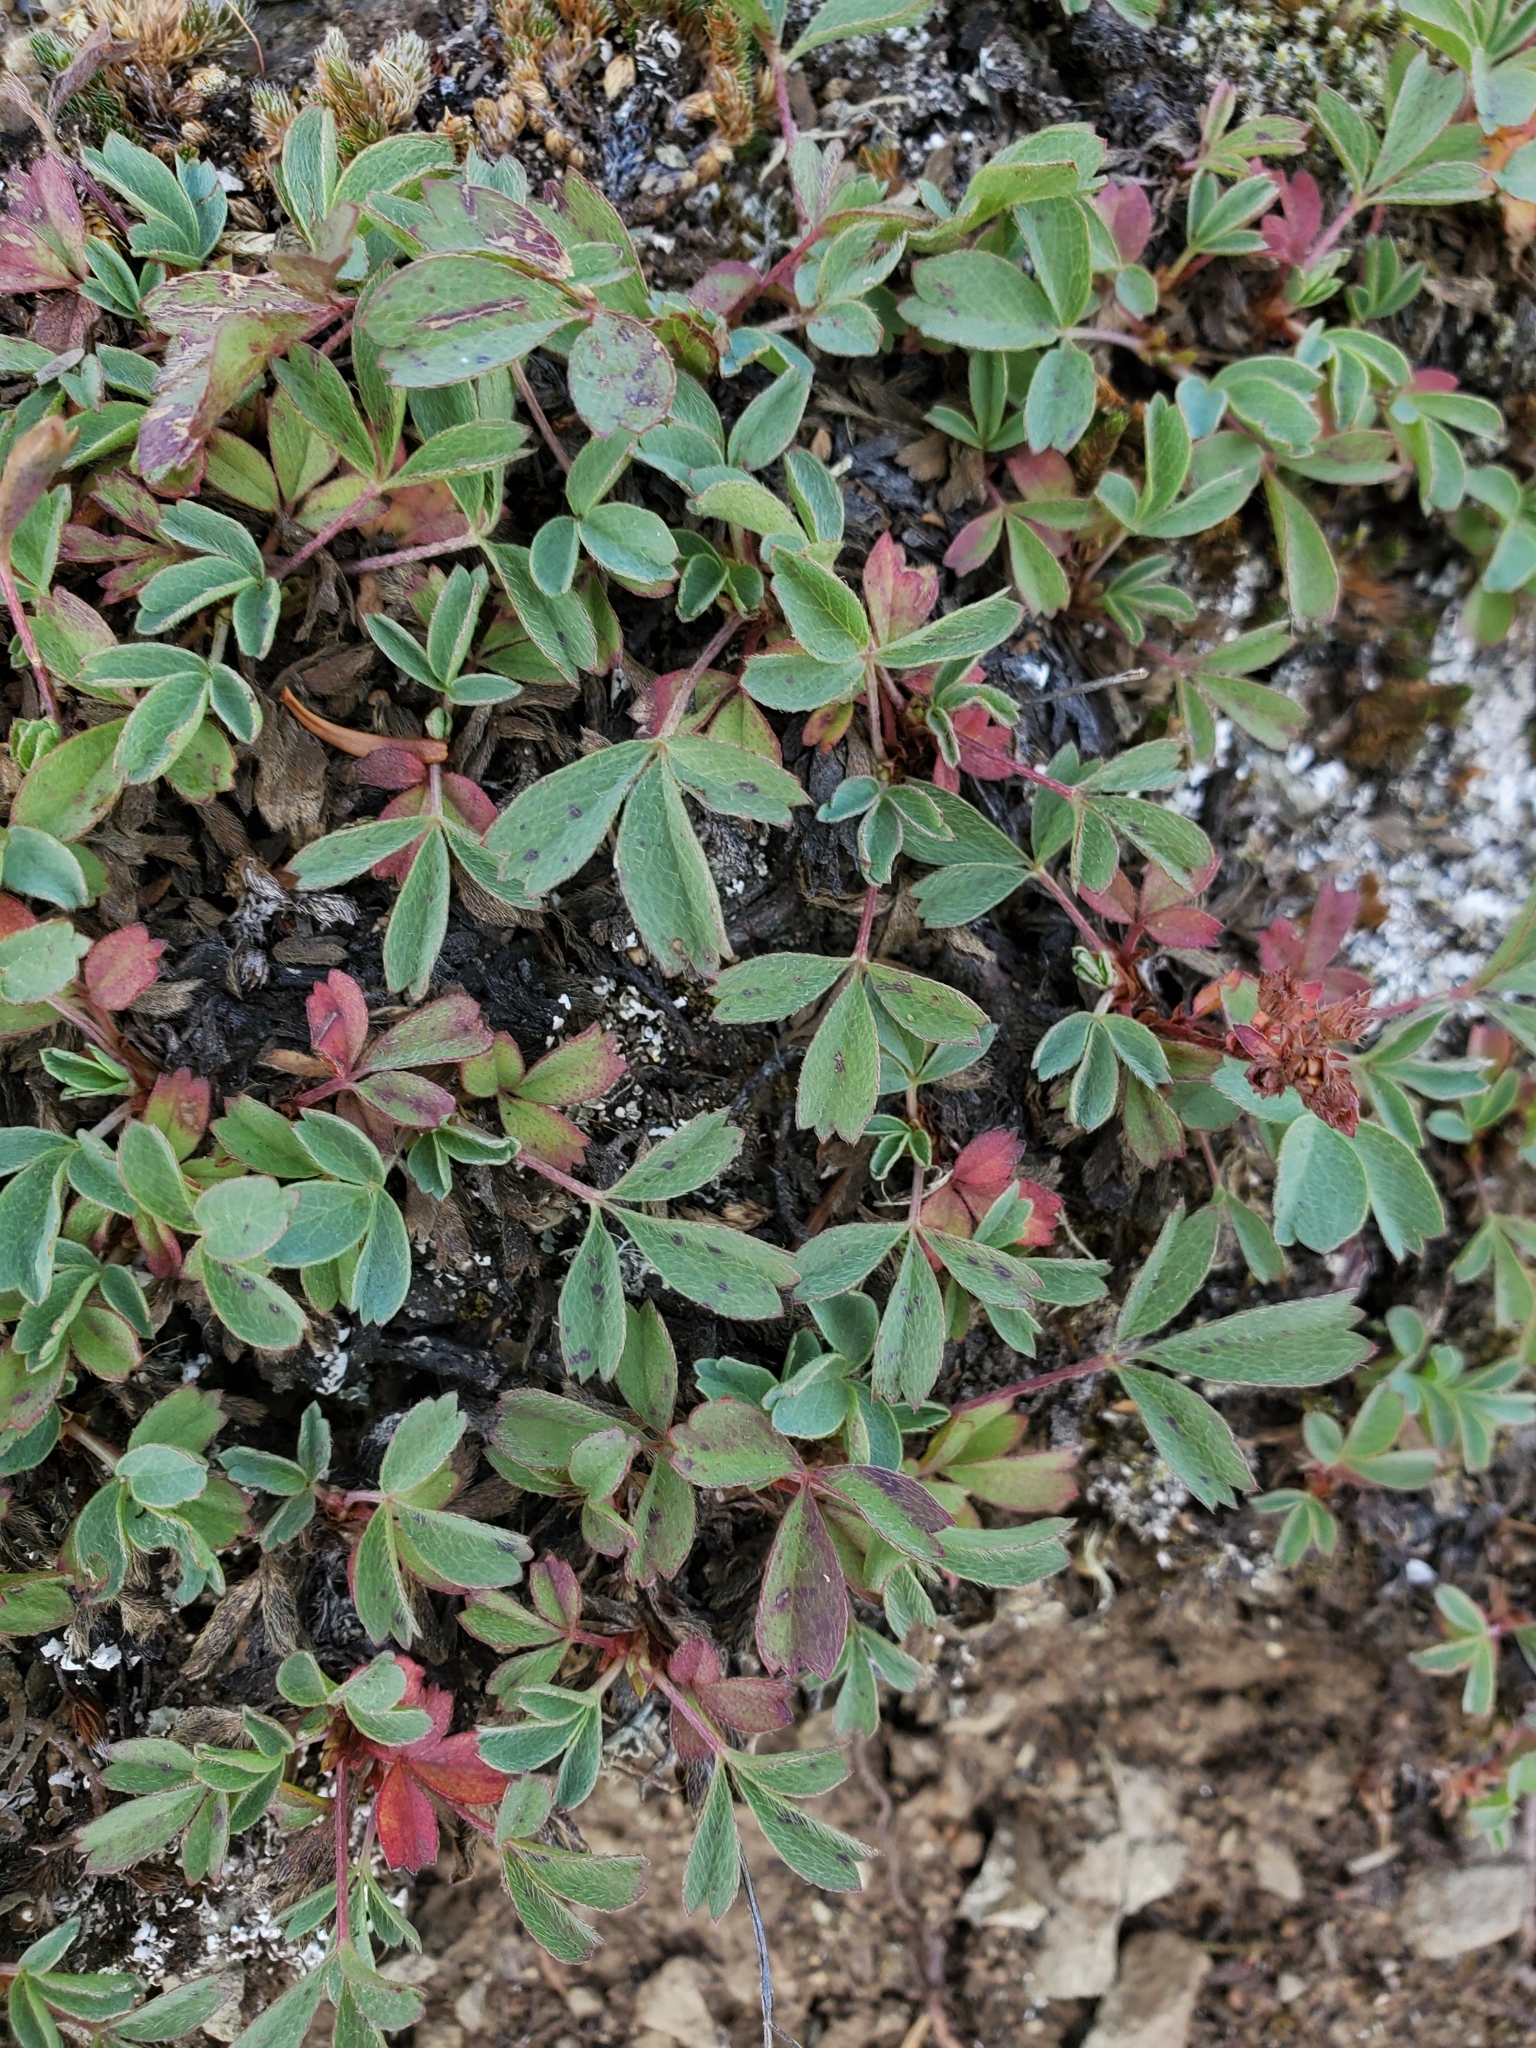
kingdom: Plantae
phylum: Tracheophyta
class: Magnoliopsida
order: Rosales
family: Rosaceae
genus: Sibbaldia
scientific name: Sibbaldia procumbens
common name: Creeping sibbaldia
